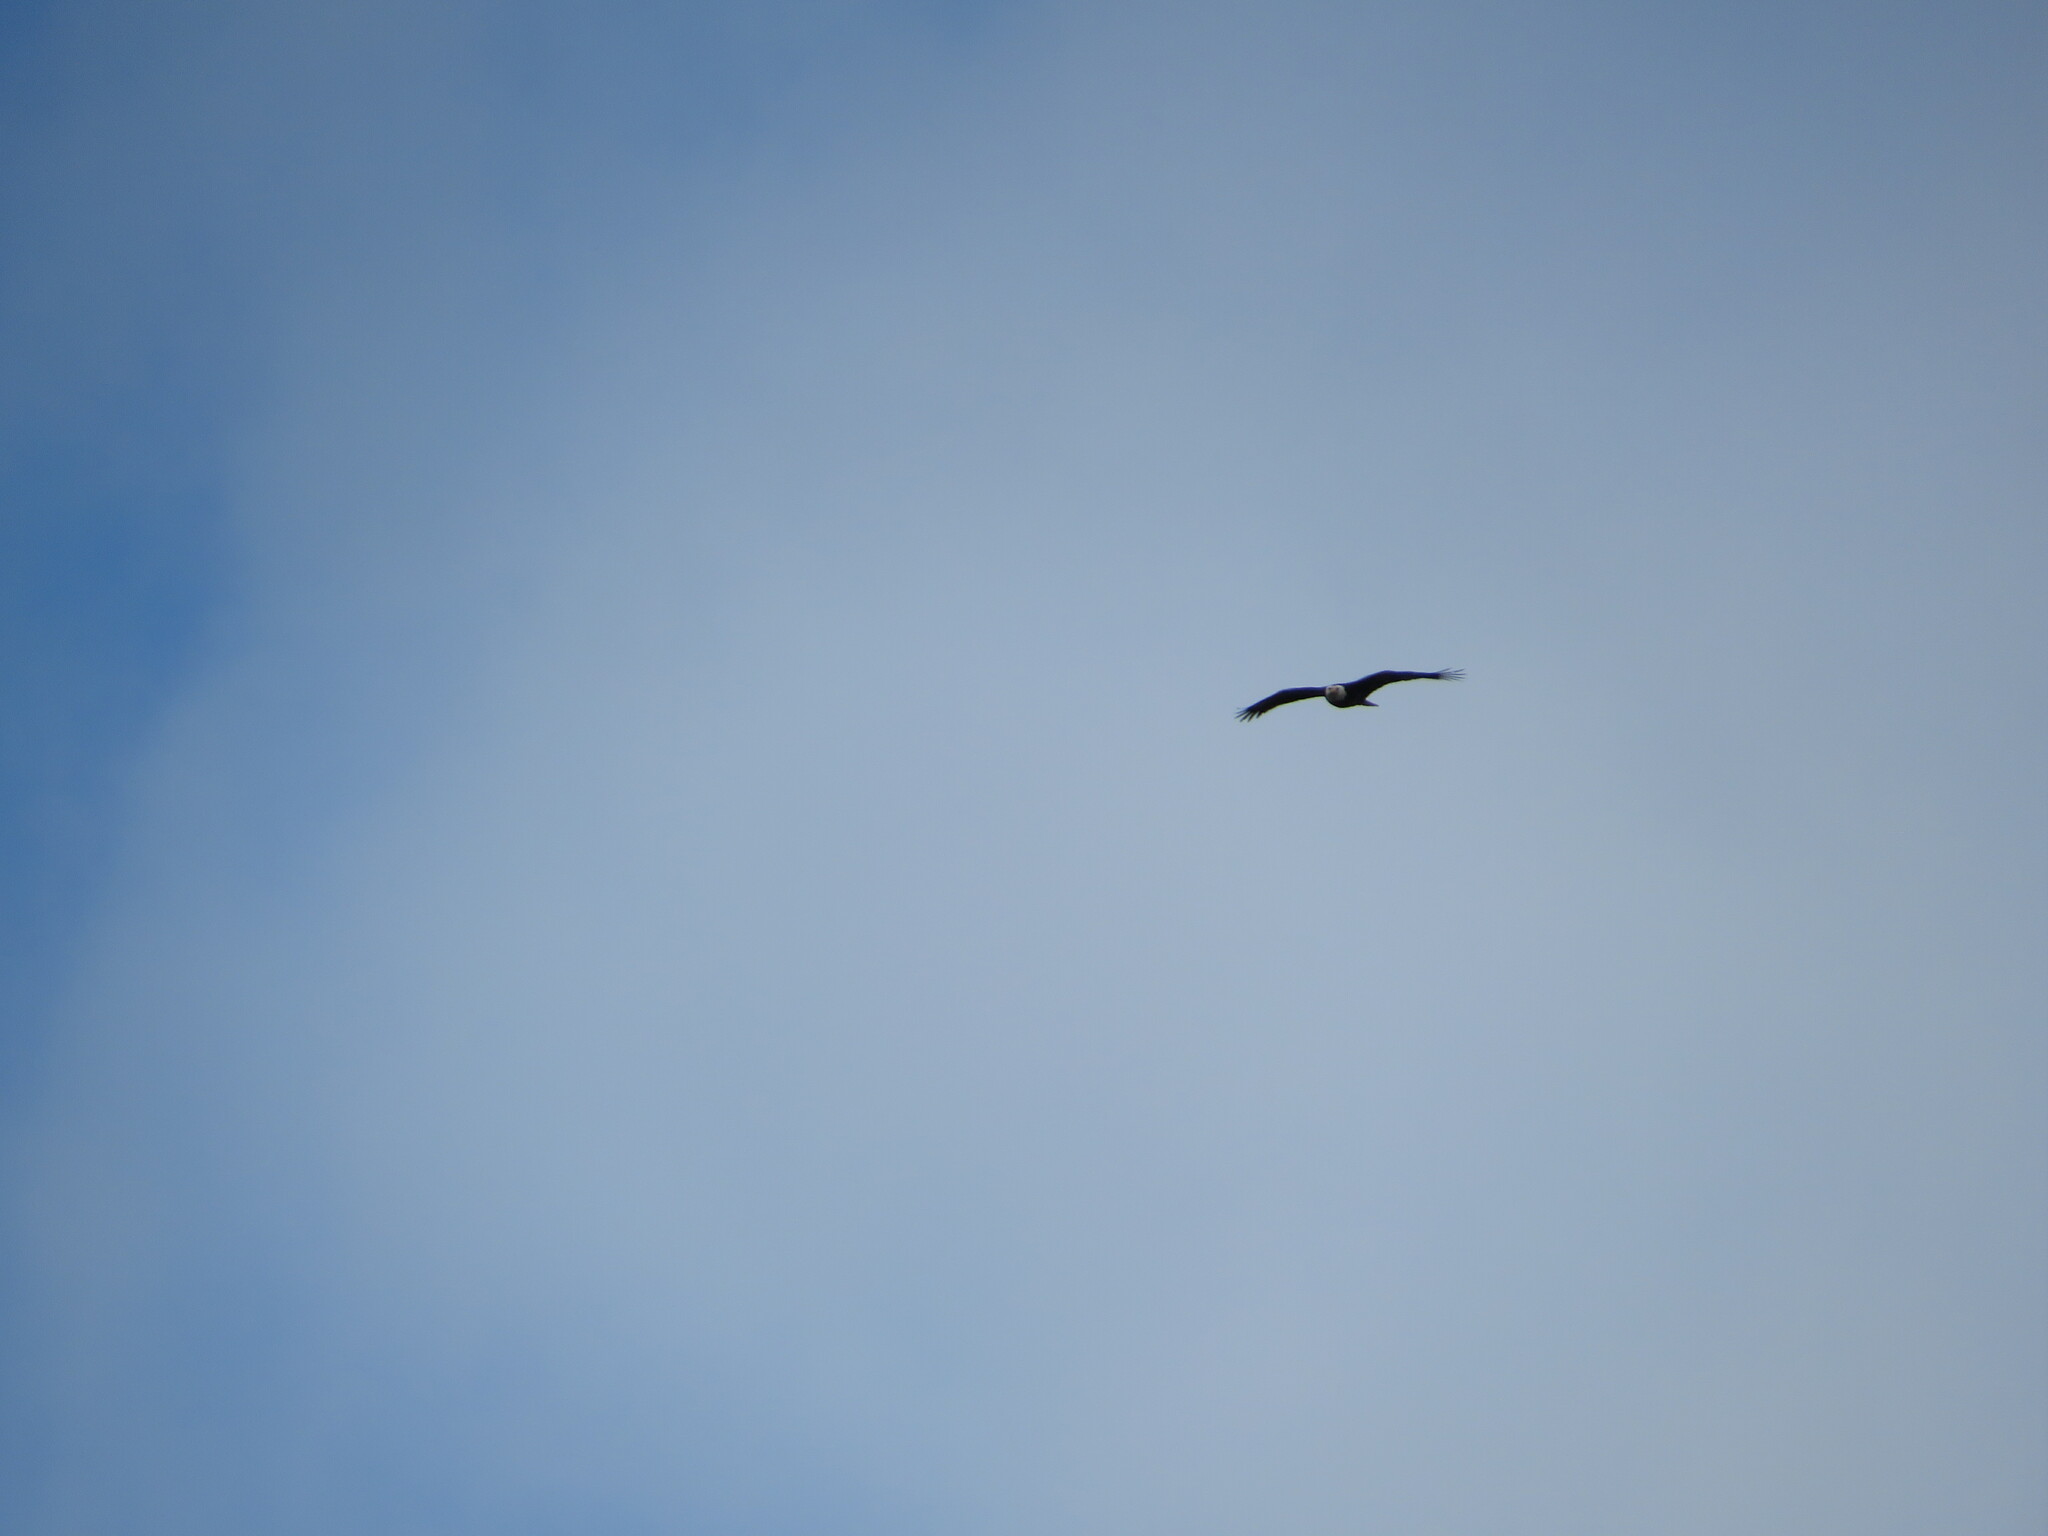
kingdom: Animalia
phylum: Chordata
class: Aves
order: Accipitriformes
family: Accipitridae
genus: Haliaeetus
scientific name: Haliaeetus leucocephalus
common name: Bald eagle
